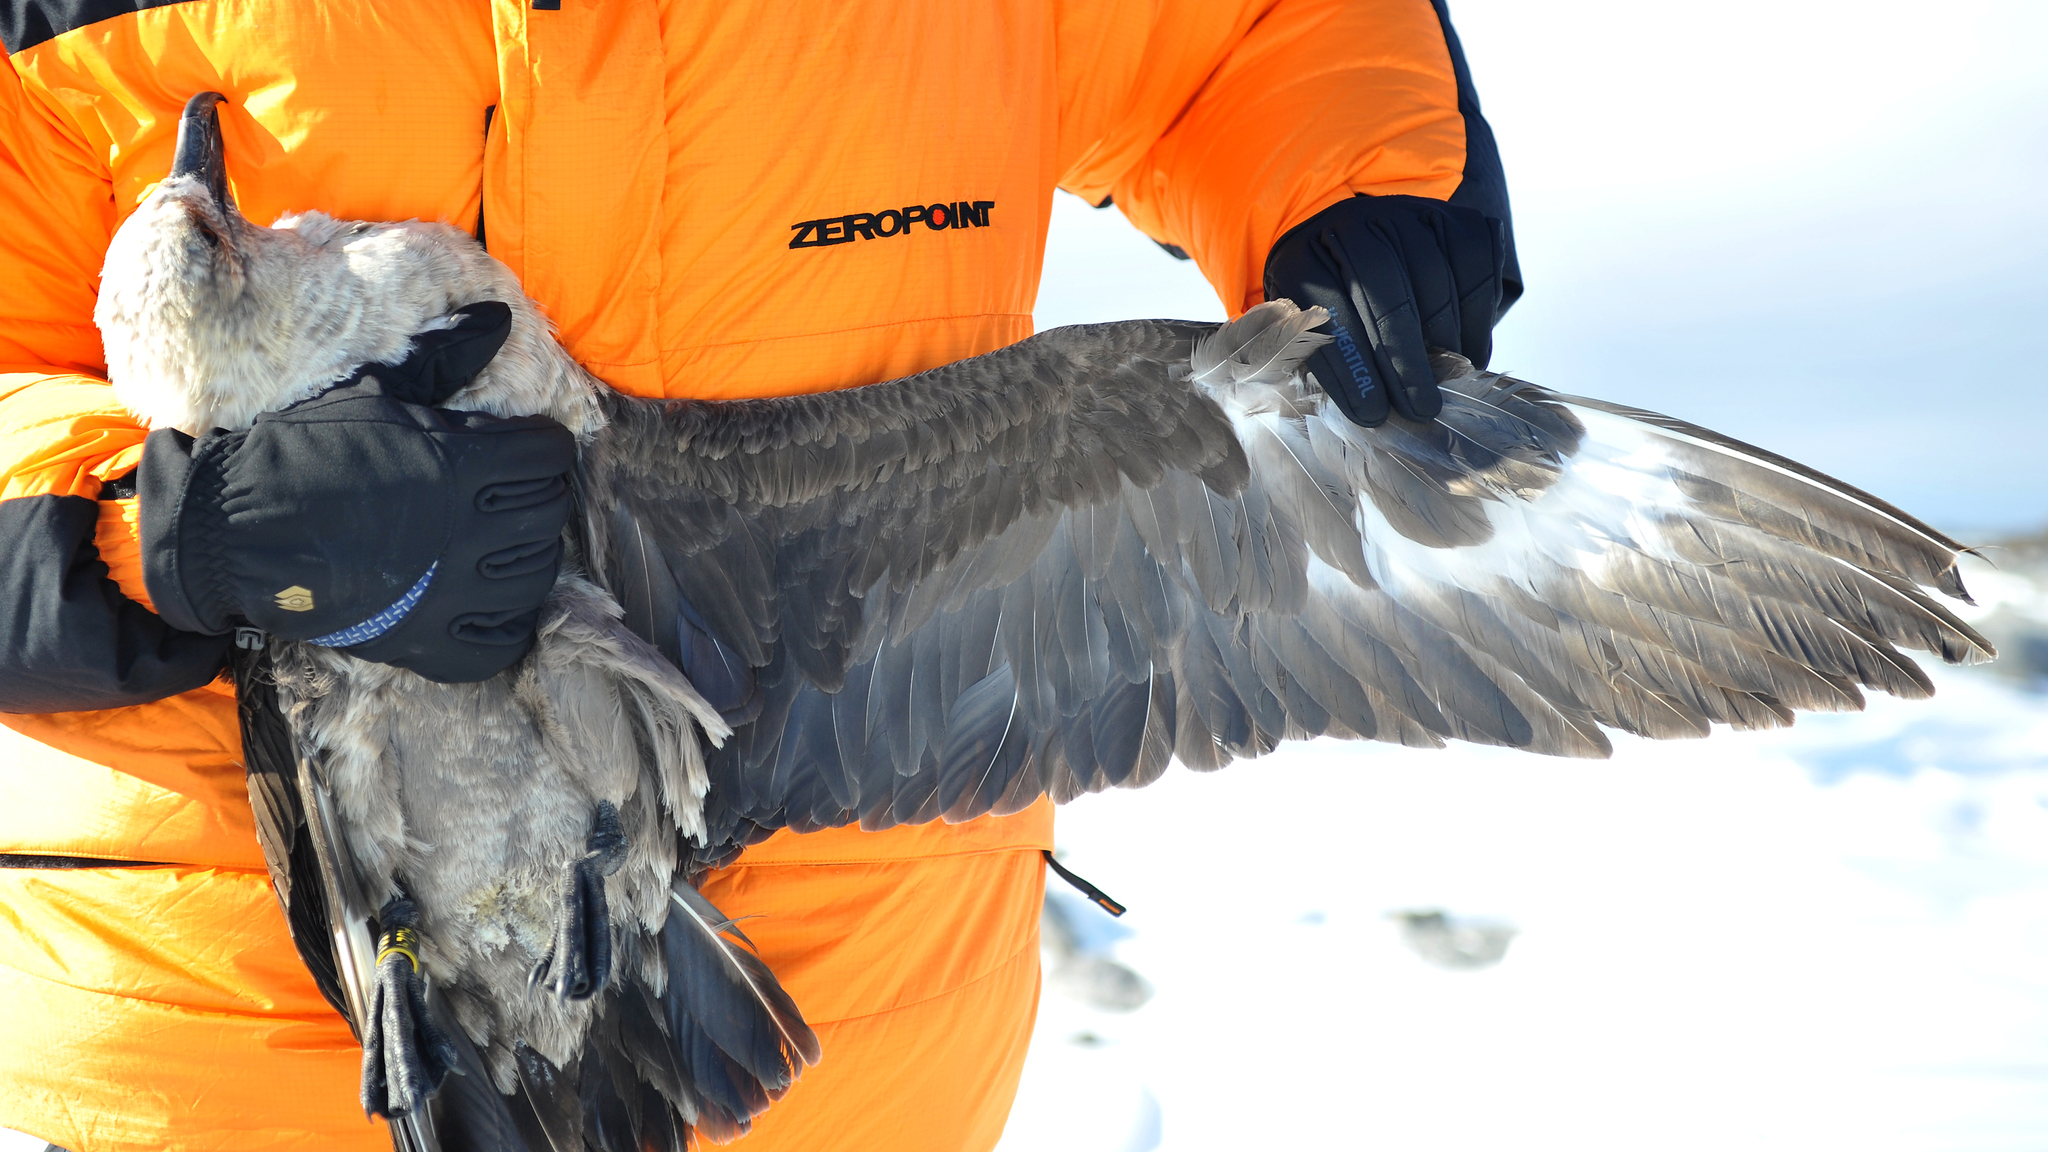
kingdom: Animalia
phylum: Chordata
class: Aves
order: Charadriiformes
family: Stercorariidae
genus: Stercorarius
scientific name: Stercorarius maccormicki
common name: South polar skua
